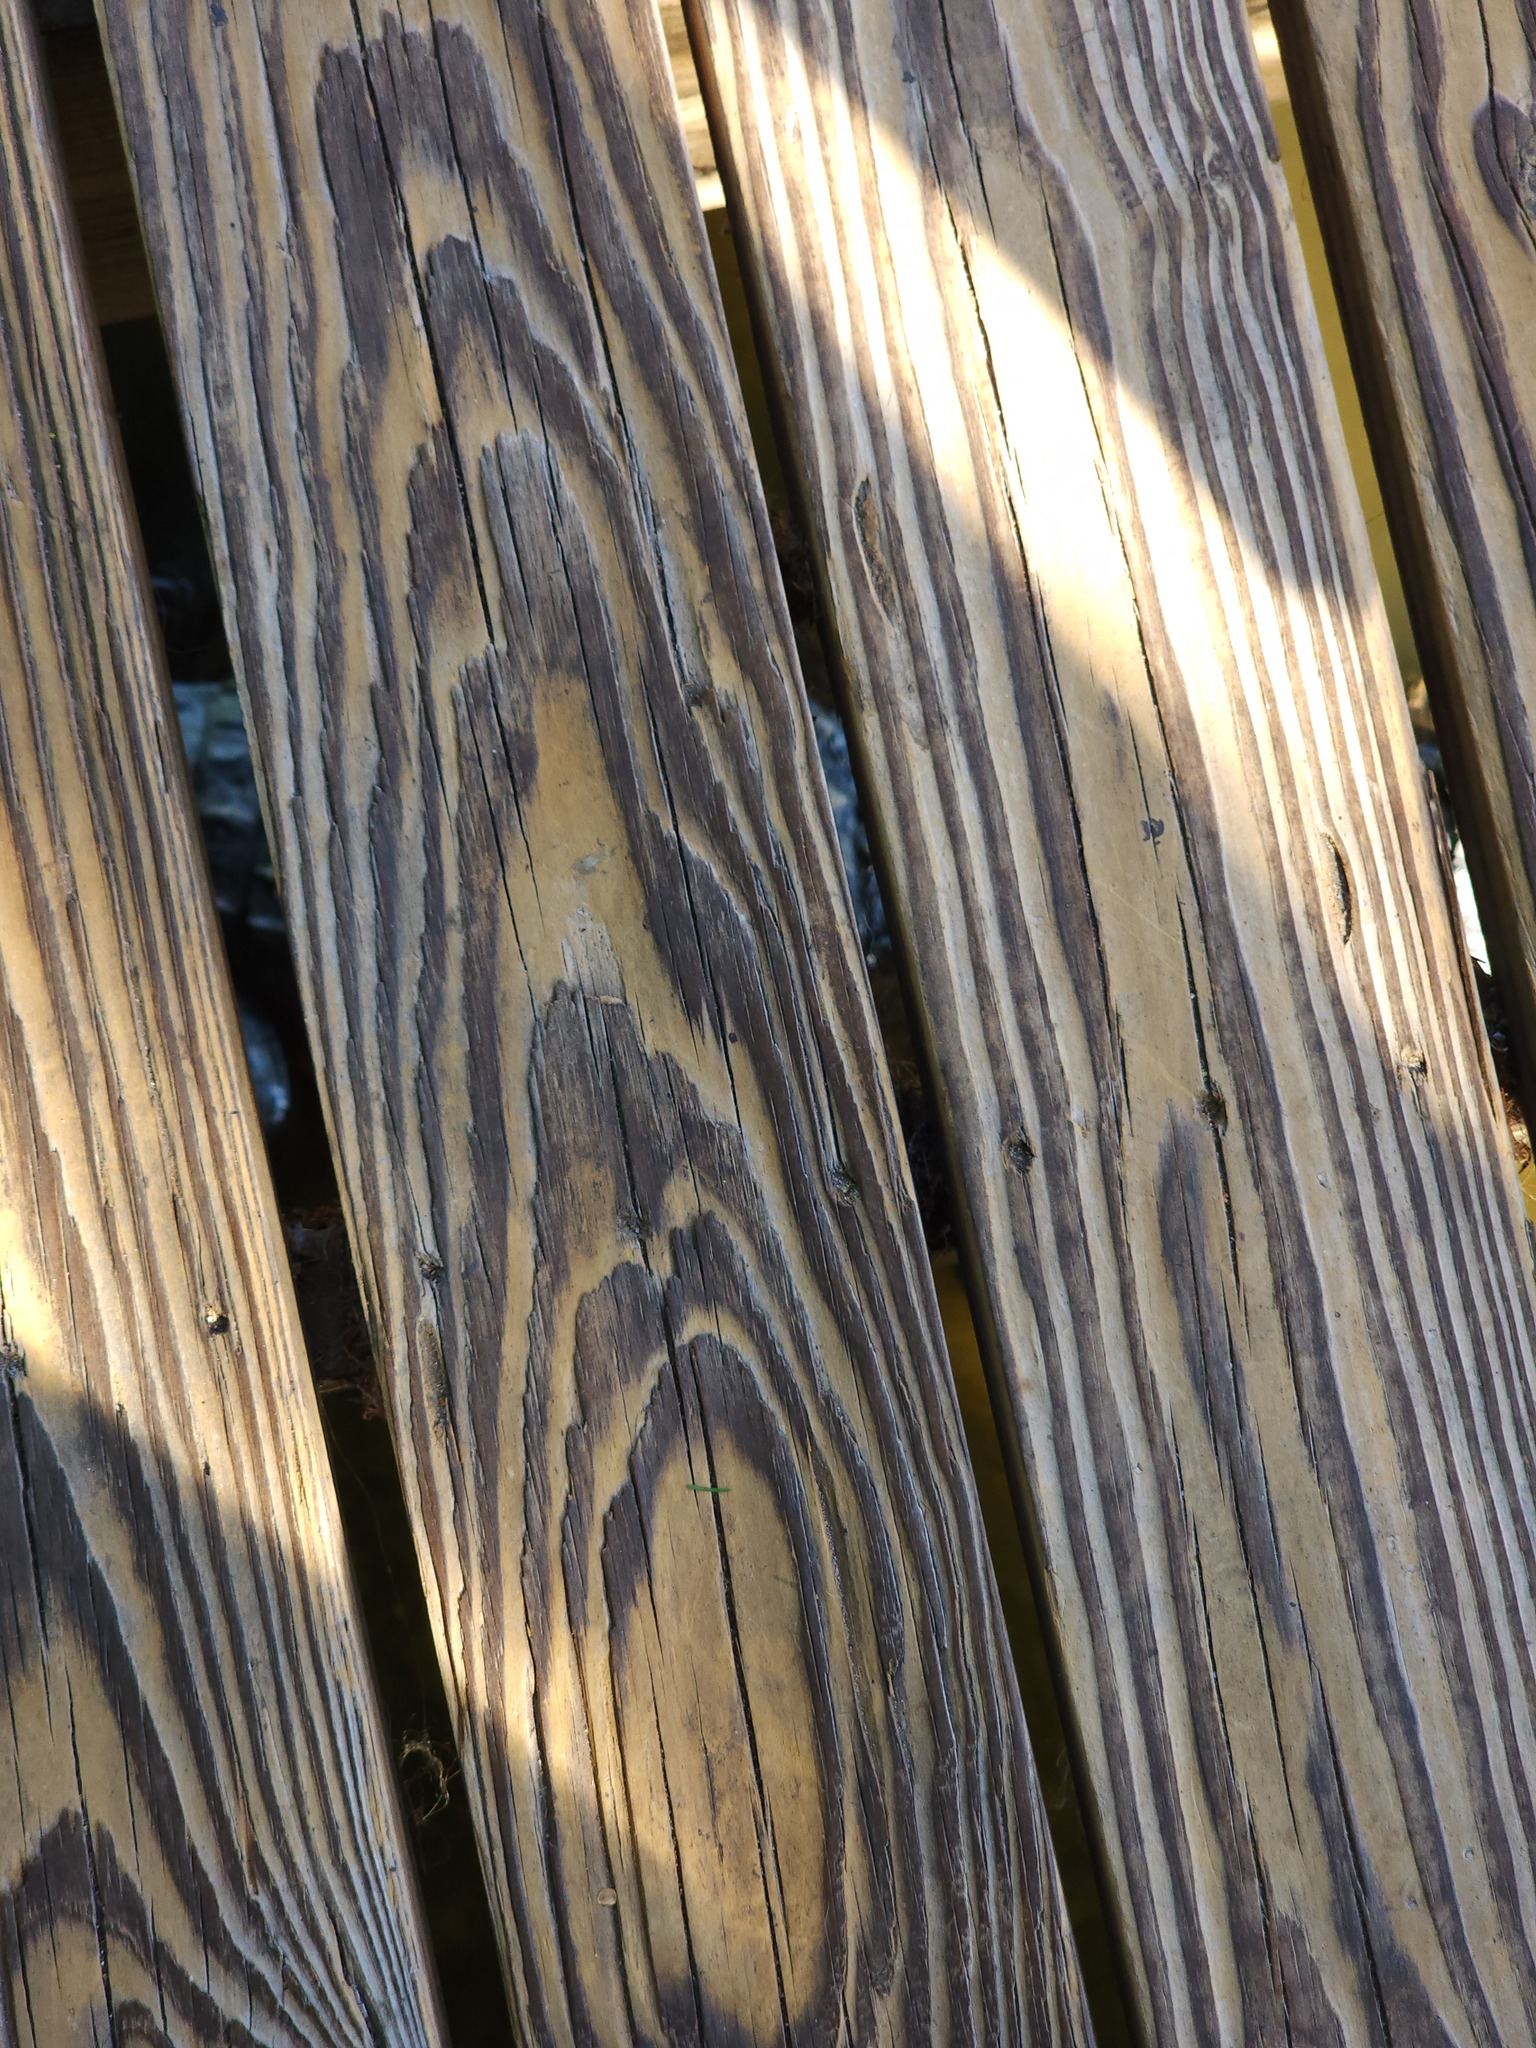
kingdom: Animalia
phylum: Chordata
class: Crocodylia
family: Alligatoridae
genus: Alligator
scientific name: Alligator mississippiensis
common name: American alligator
